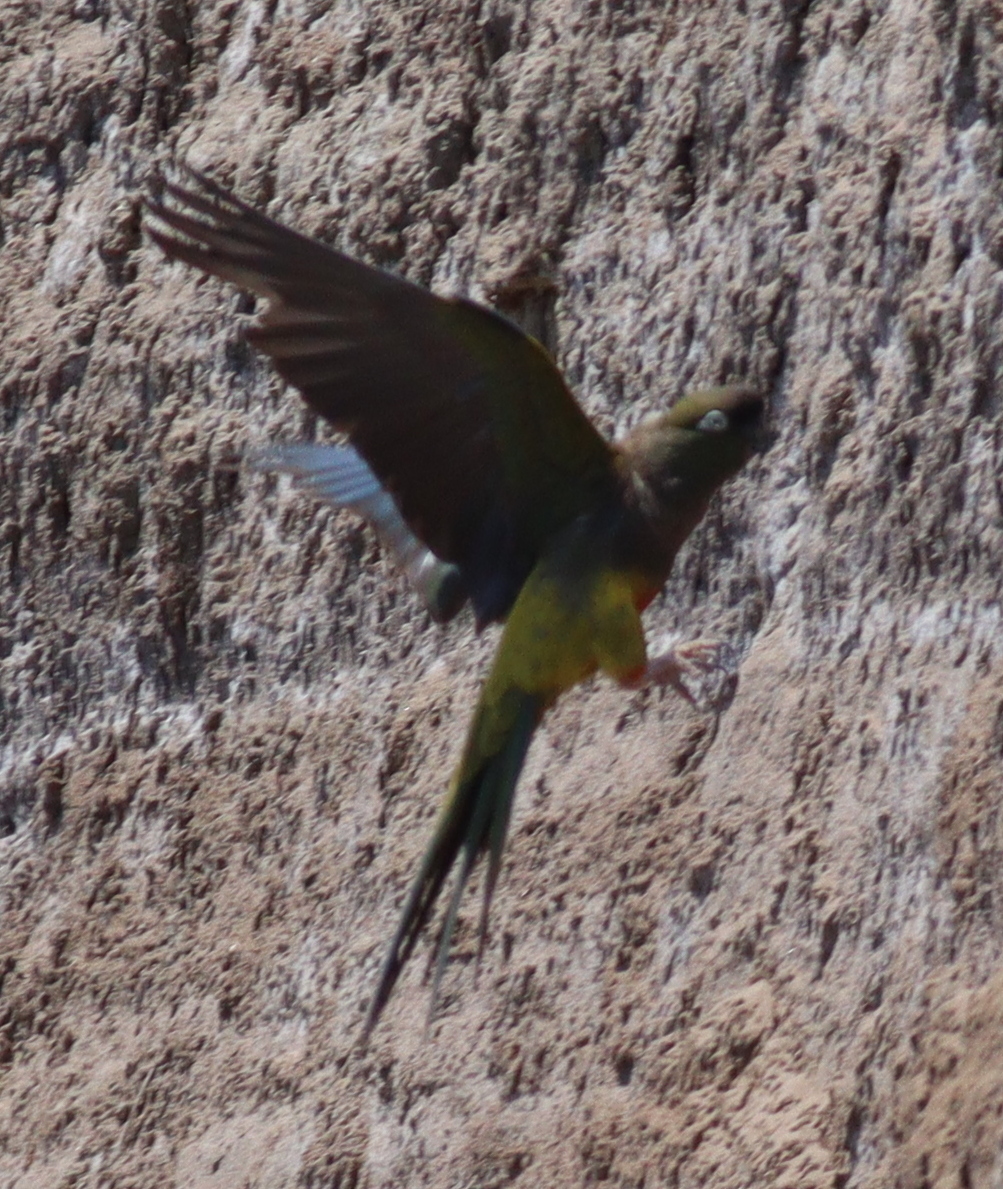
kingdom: Animalia
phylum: Chordata
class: Aves
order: Psittaciformes
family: Psittacidae
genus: Cyanoliseus
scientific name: Cyanoliseus patagonus
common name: Burrowing parrot
